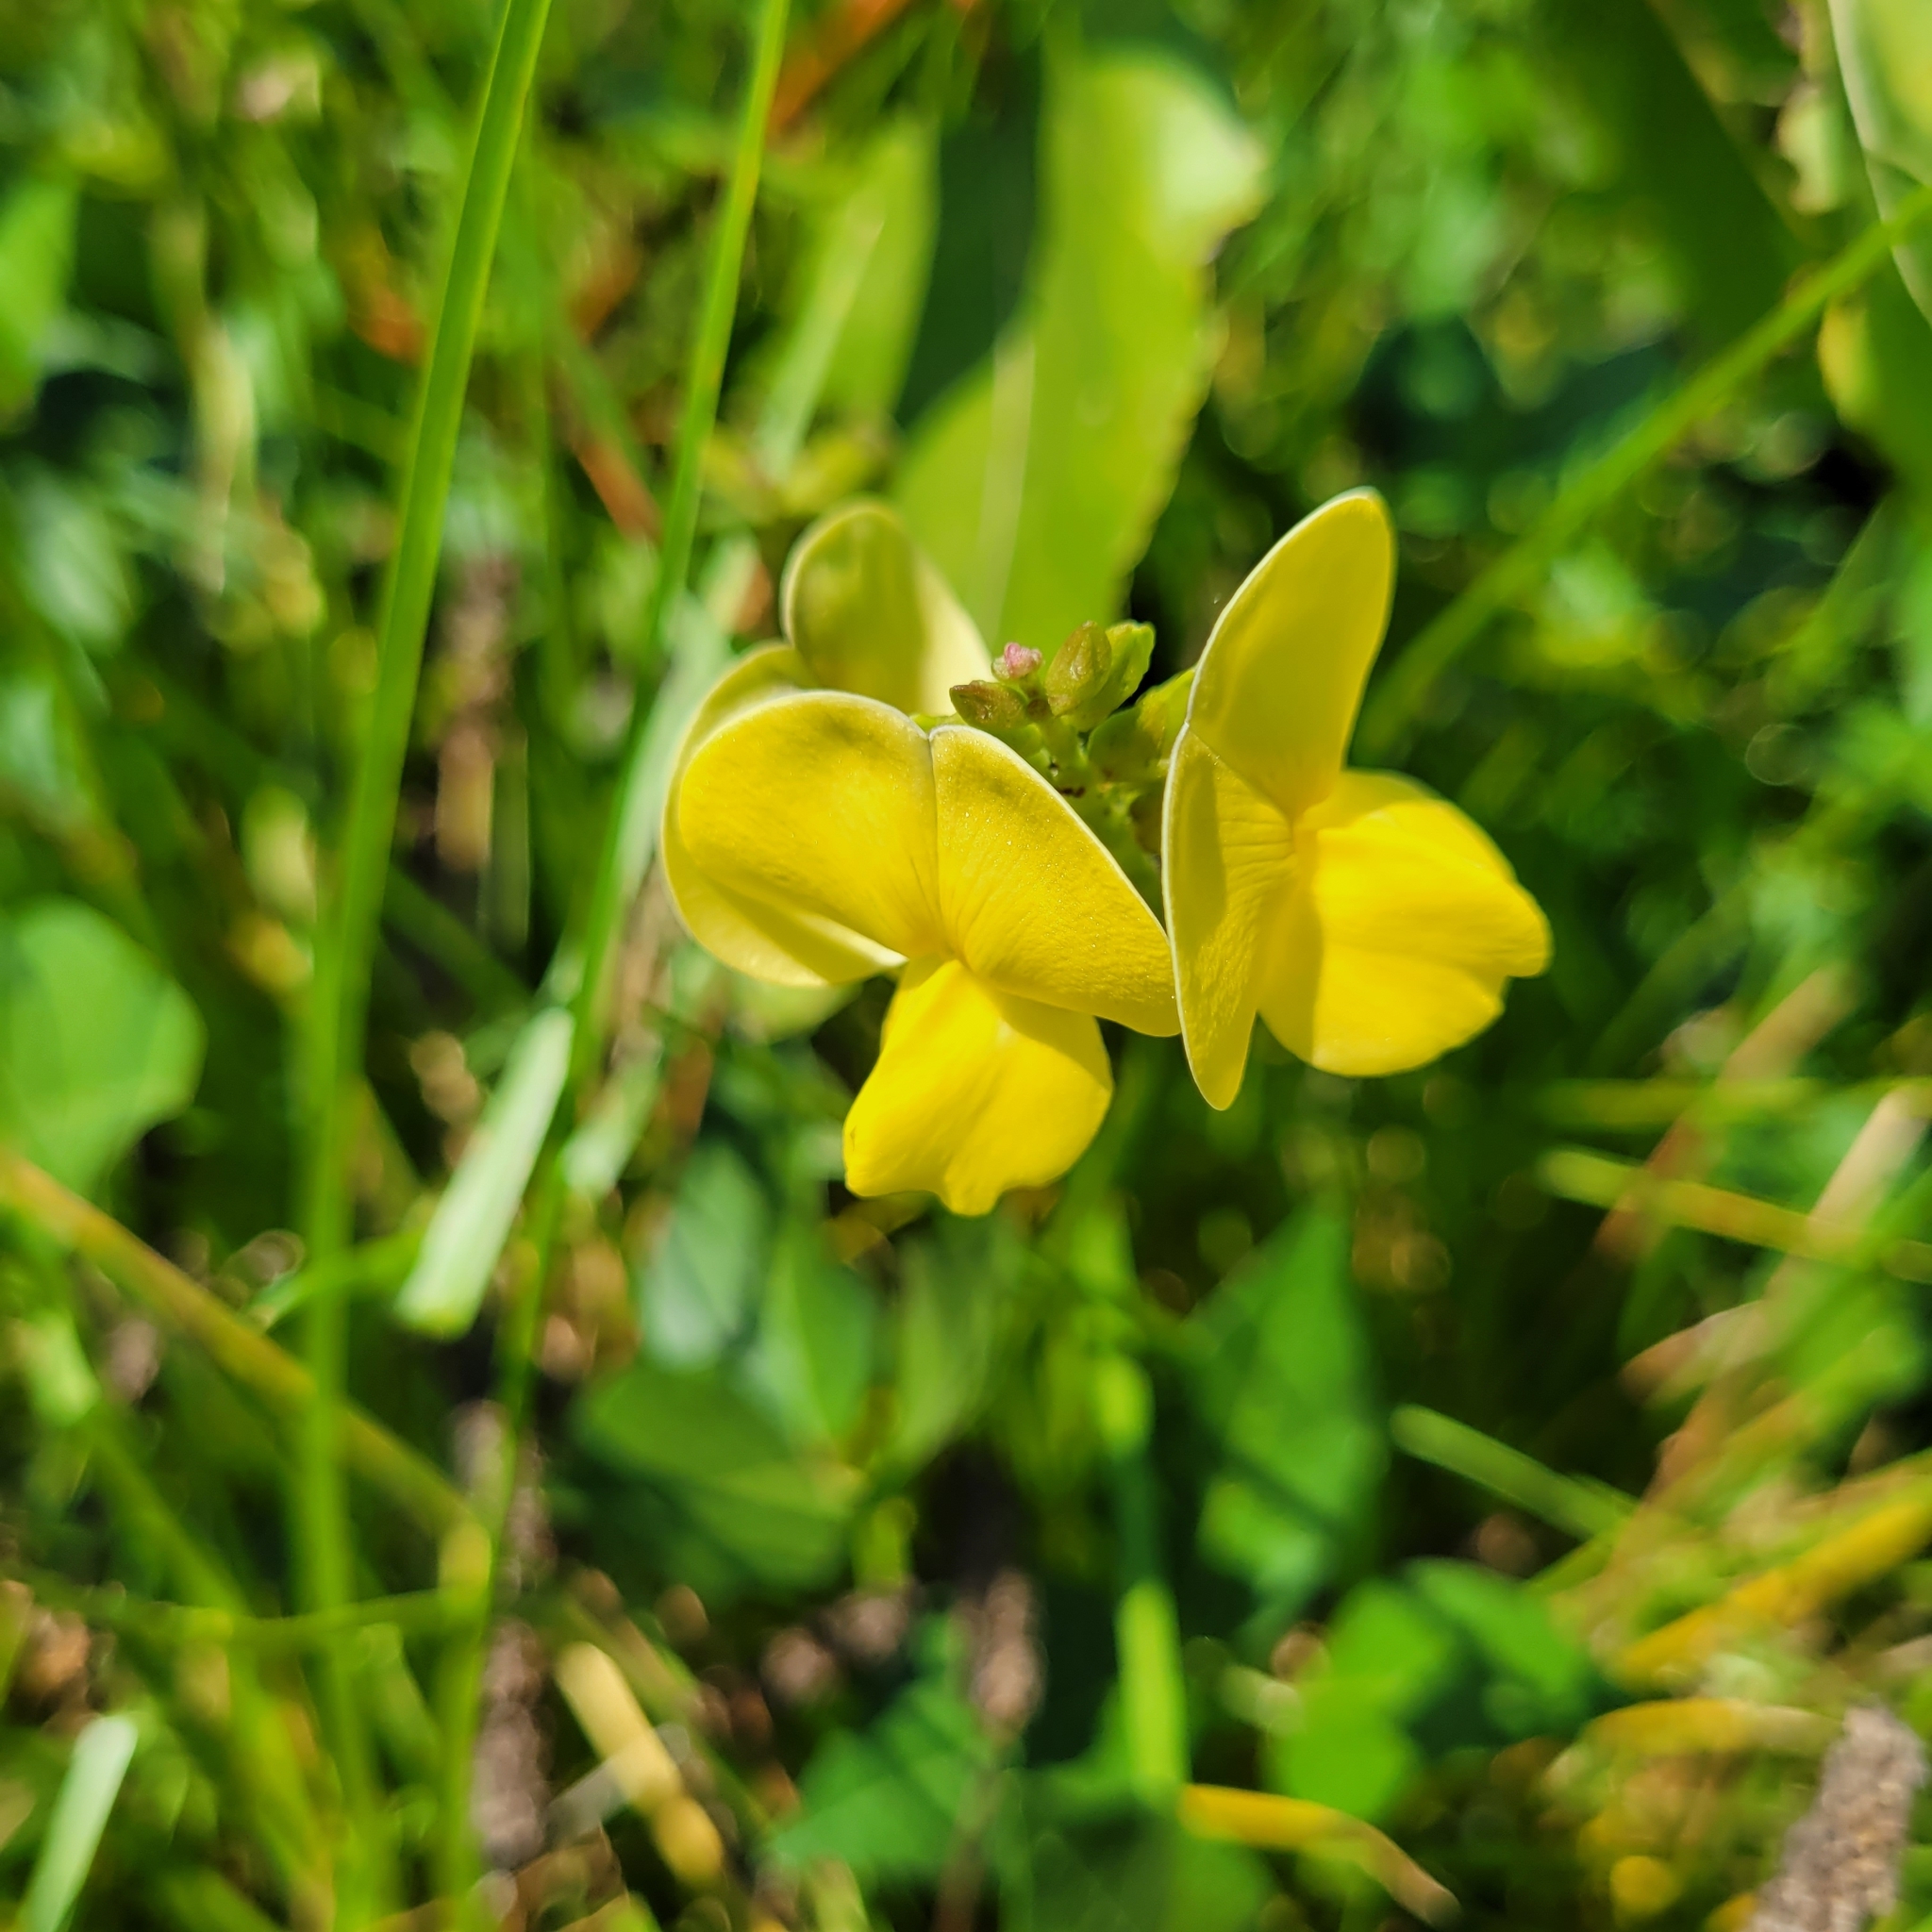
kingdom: Plantae
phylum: Tracheophyta
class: Magnoliopsida
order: Fabales
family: Fabaceae
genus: Vigna
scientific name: Vigna luteola
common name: Hairypod cowpea
